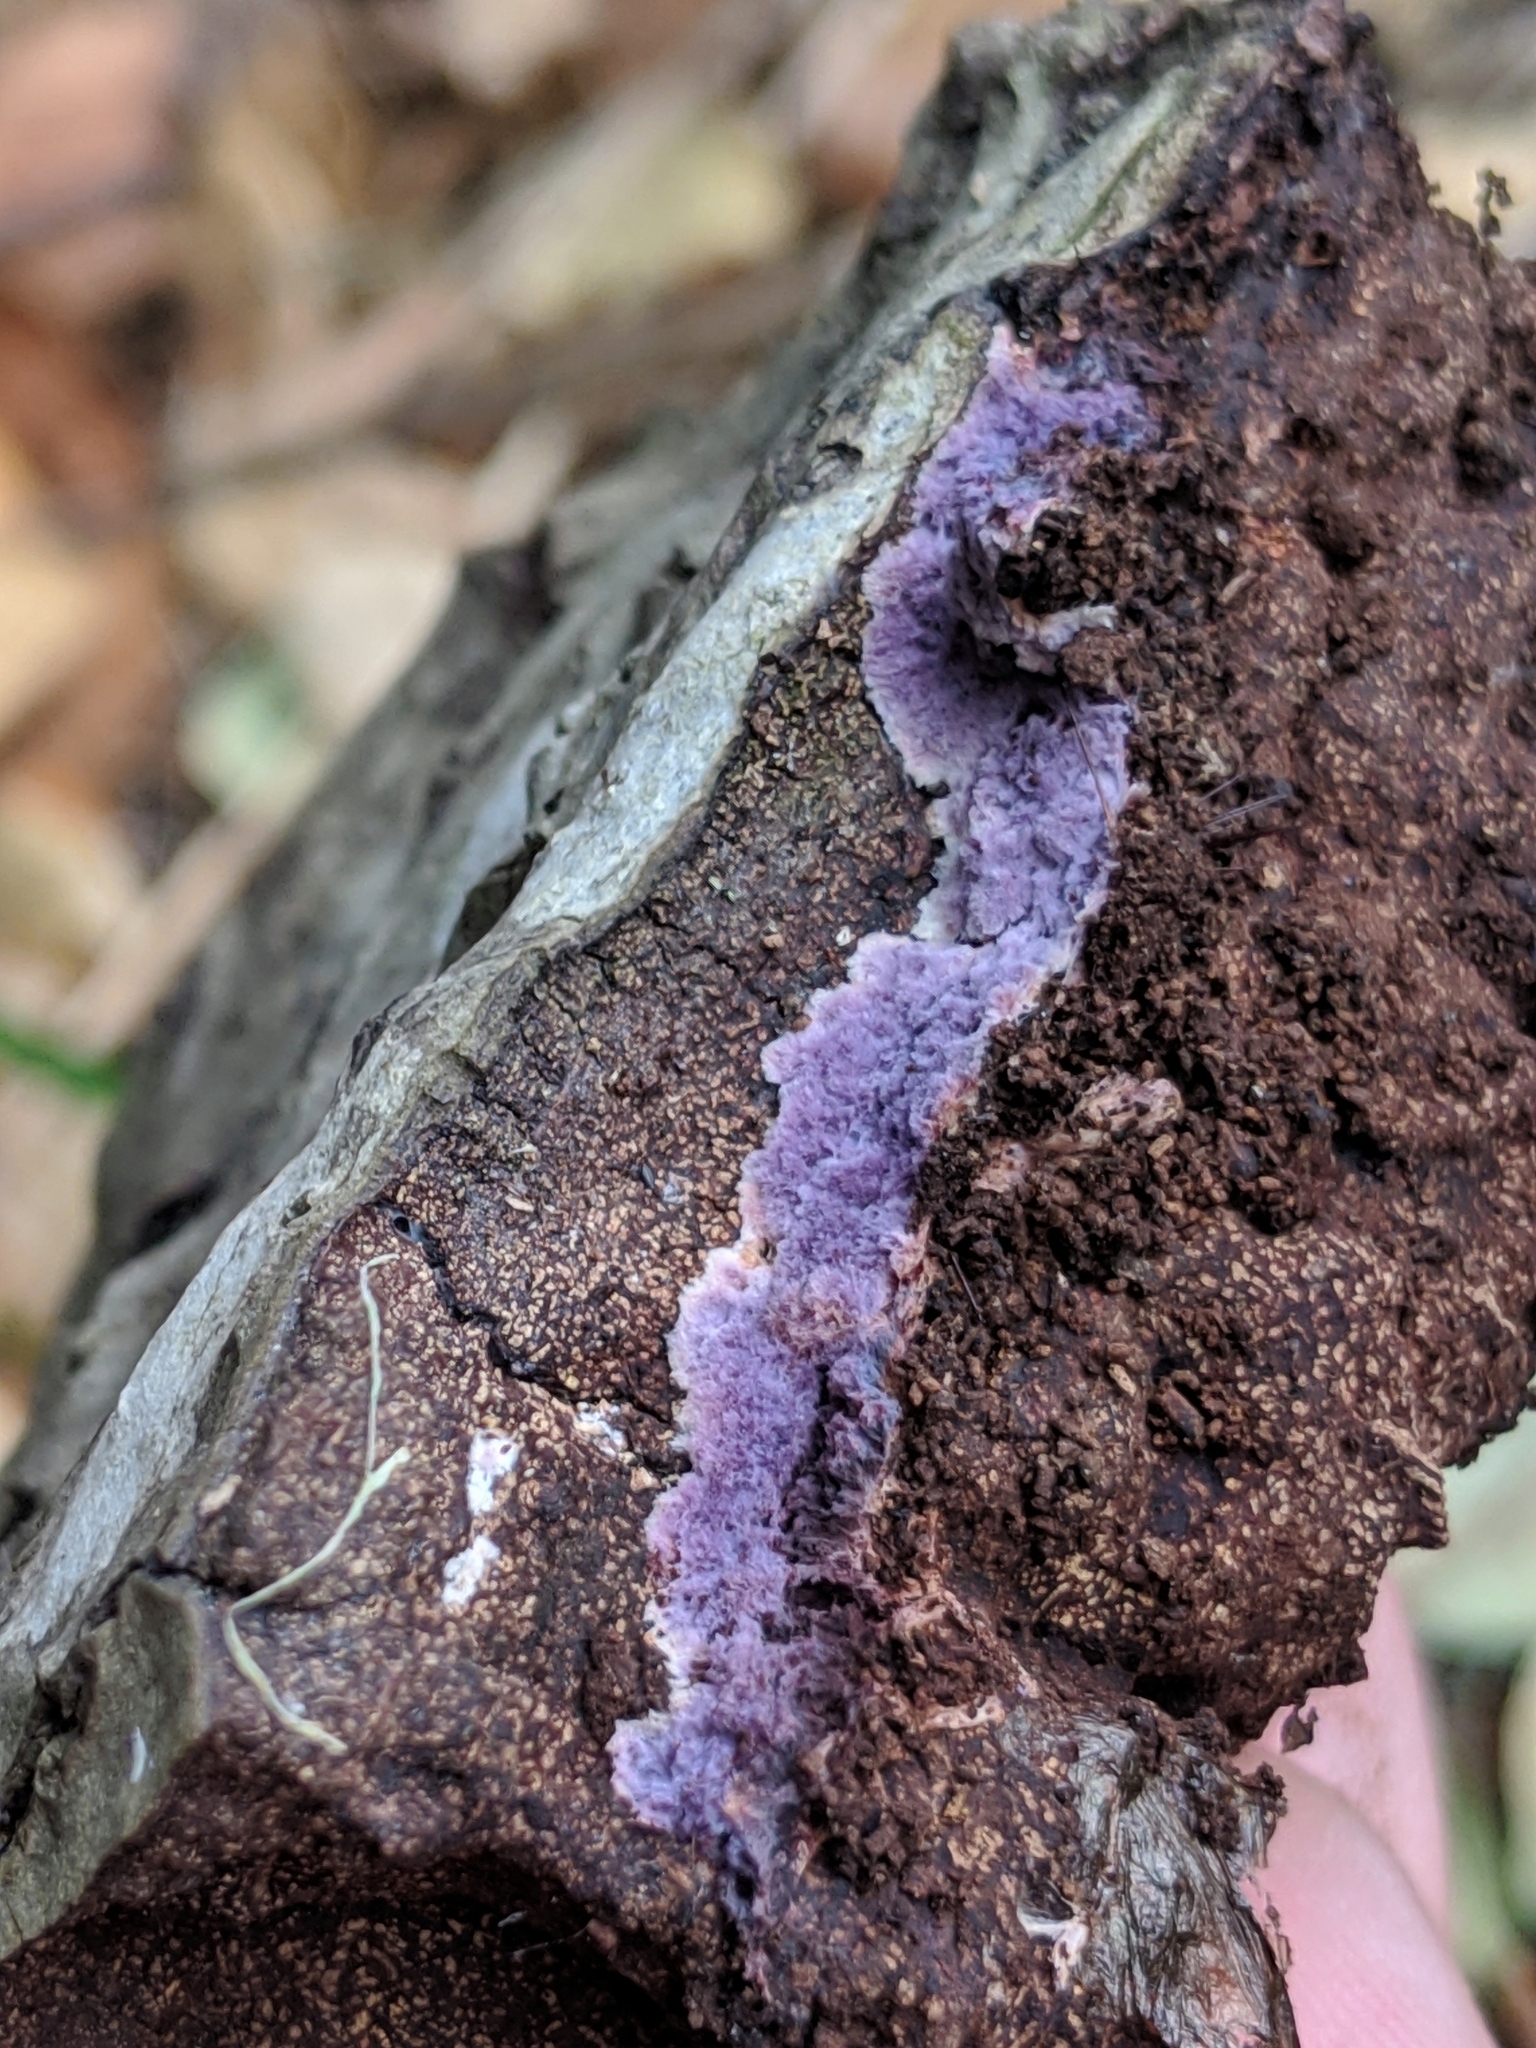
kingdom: Fungi
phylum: Basidiomycota
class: Agaricomycetes
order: Corticiales
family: Punctulariaceae
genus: Punctularia
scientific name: Punctularia atropurpurascens
